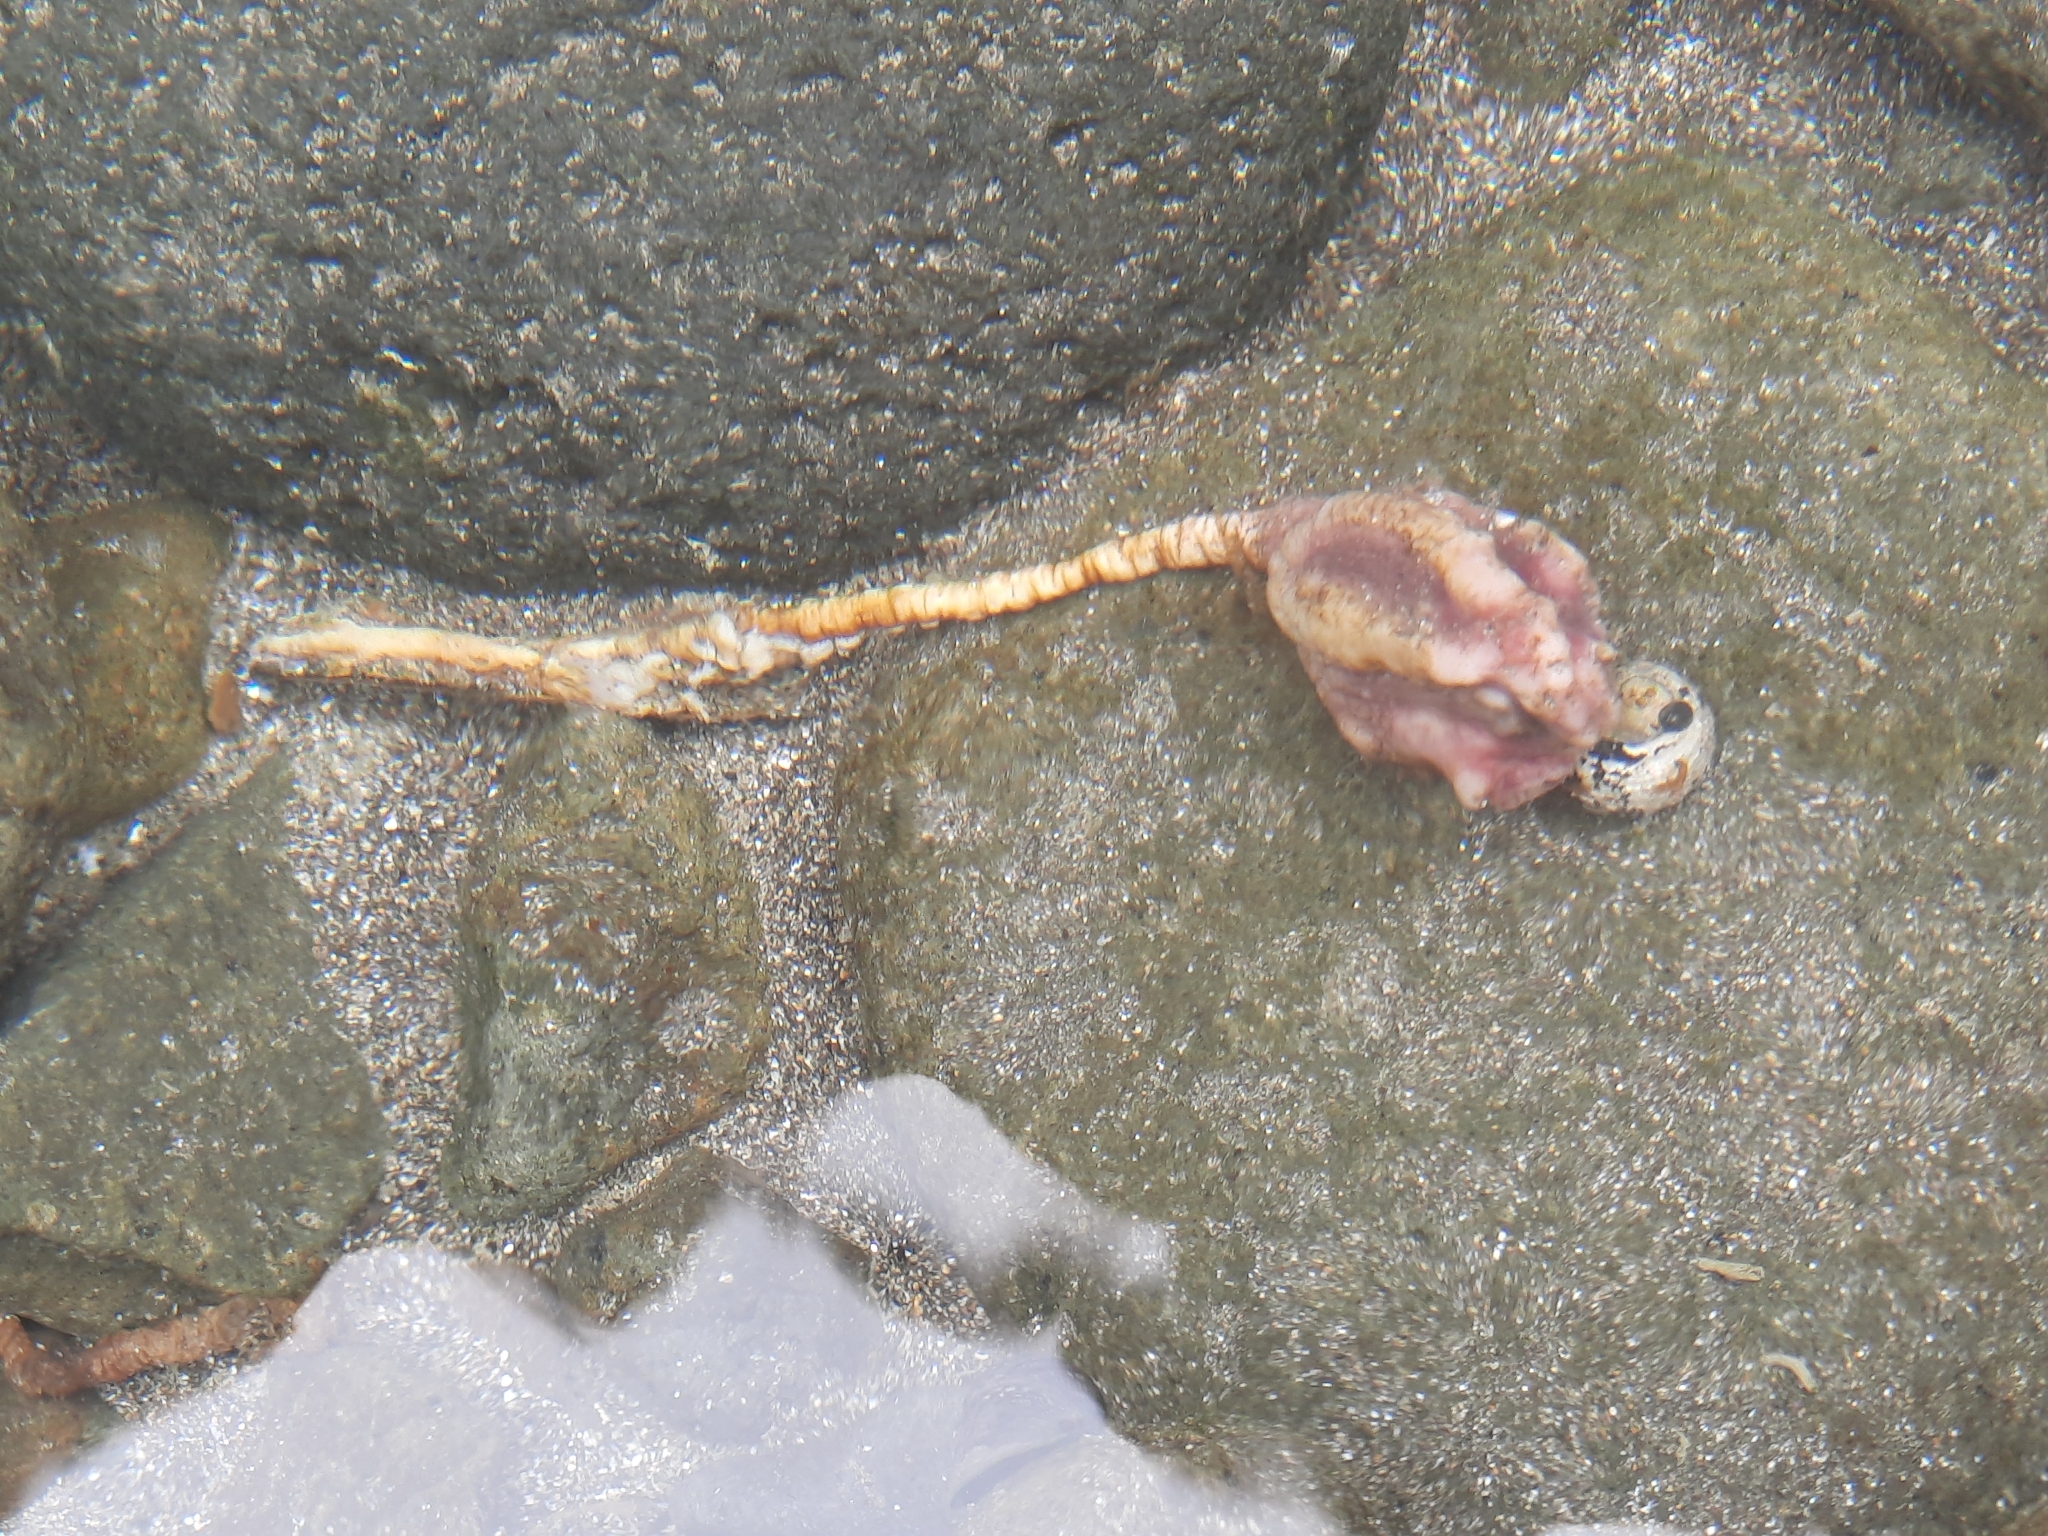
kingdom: Animalia
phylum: Chordata
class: Ascidiacea
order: Stolidobranchia
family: Pyuridae
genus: Pyura
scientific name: Pyura pachydermatina
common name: Sea tulip
